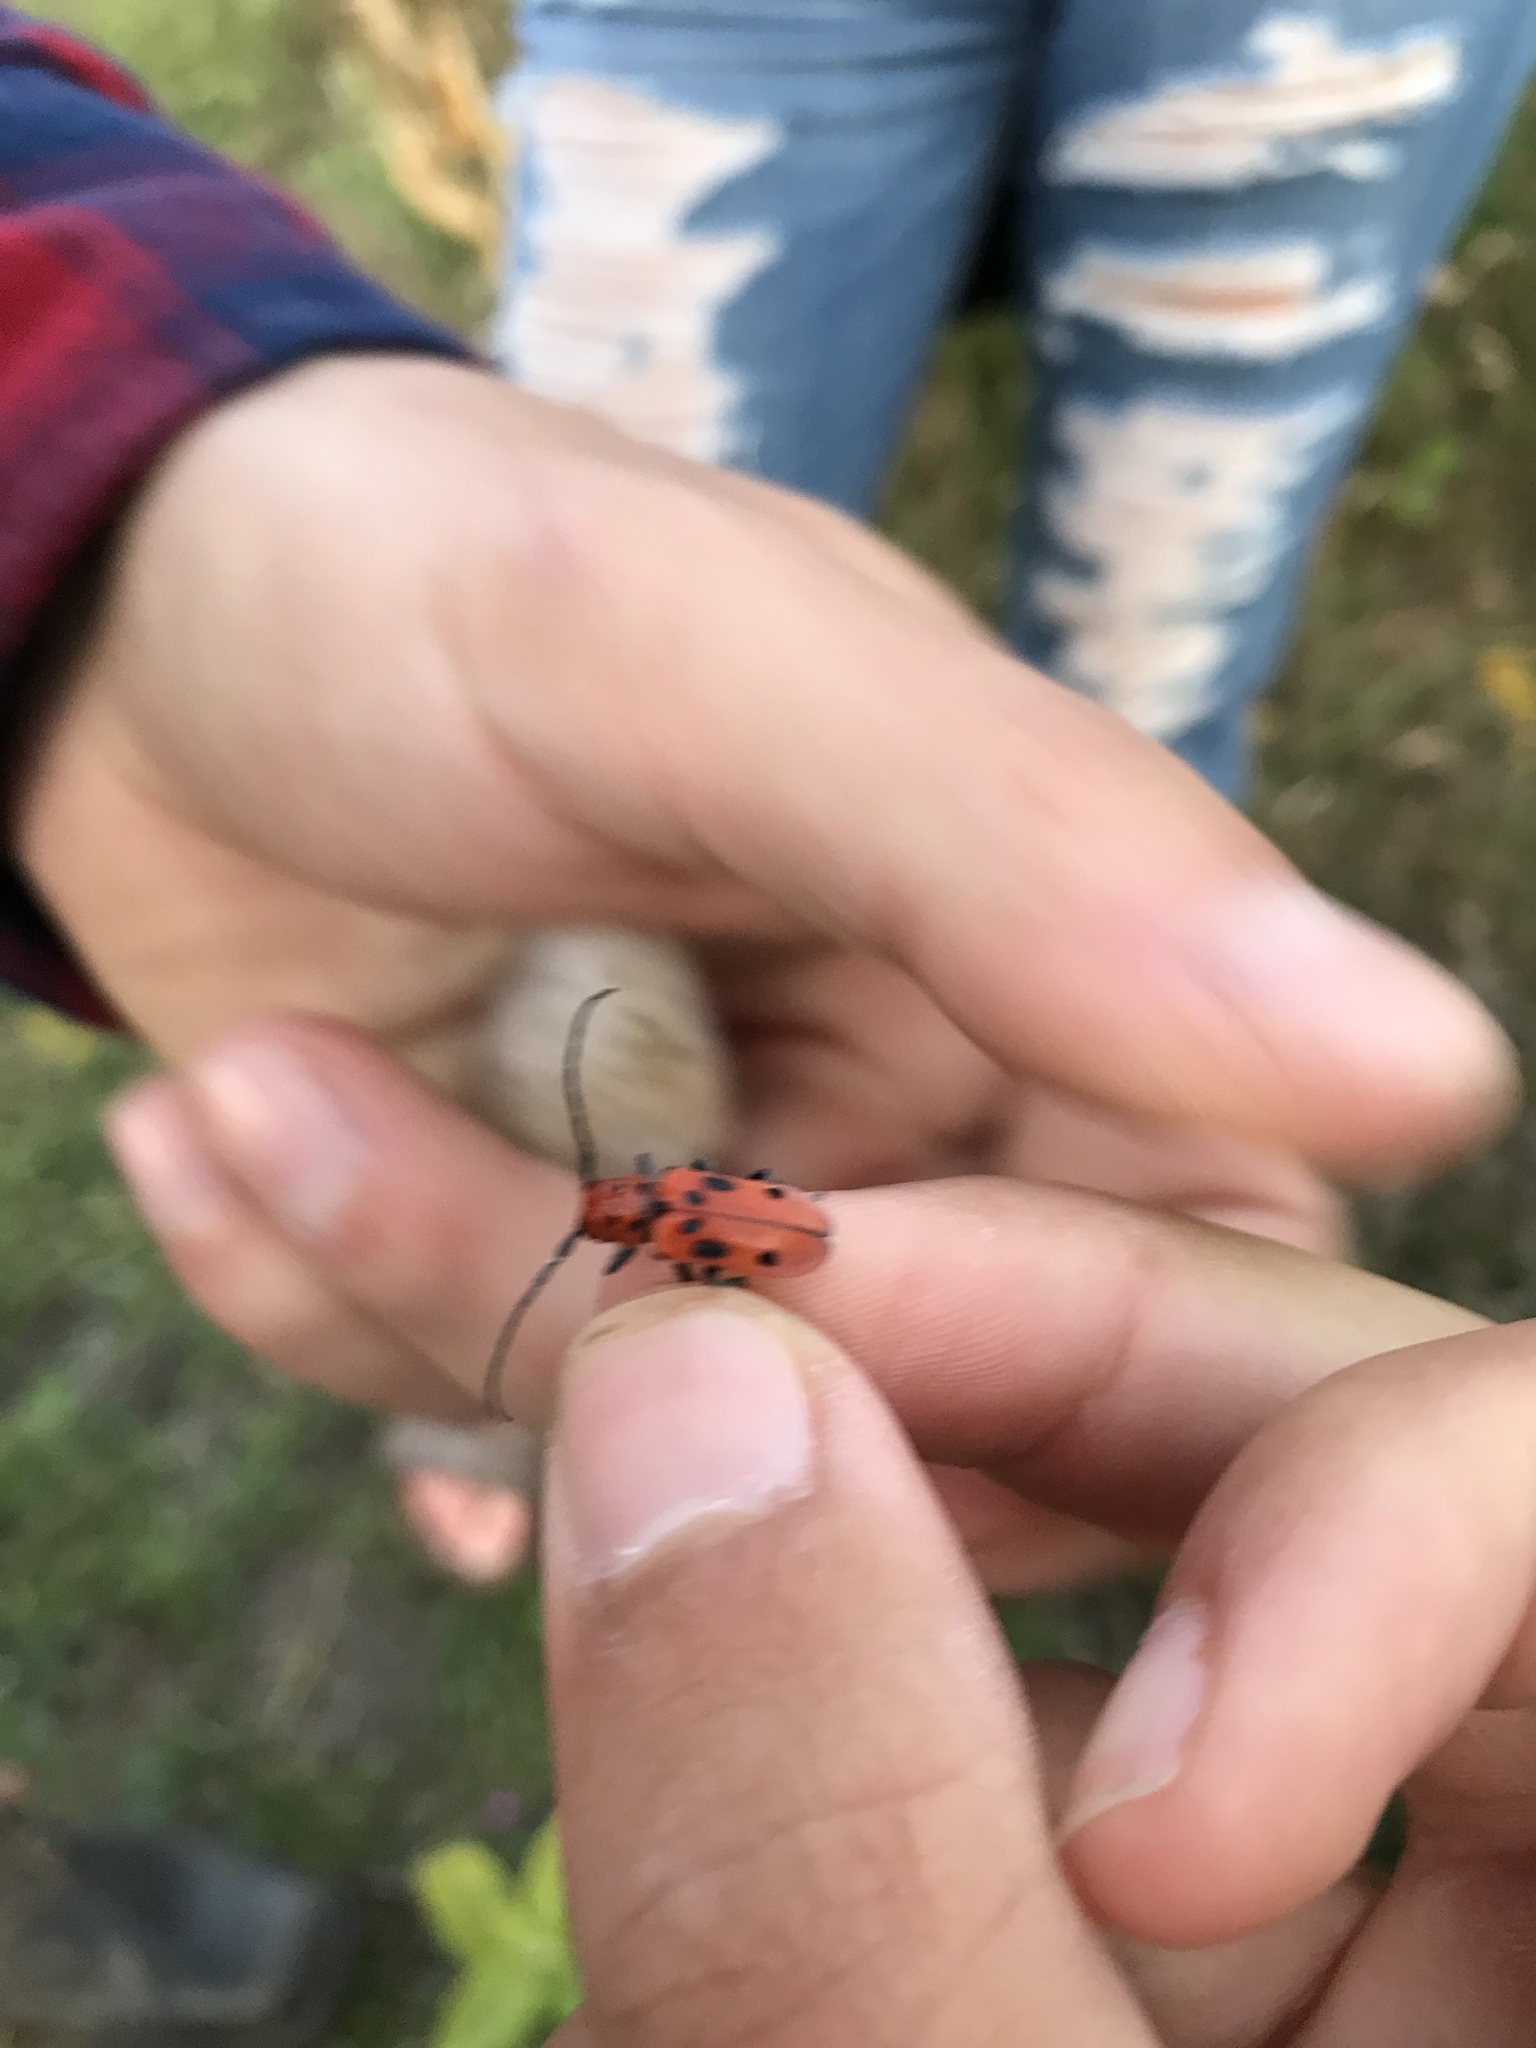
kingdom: Animalia
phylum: Arthropoda
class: Insecta
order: Coleoptera
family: Cerambycidae
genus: Tetraopes
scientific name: Tetraopes tetrophthalmus
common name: Red milkweed beetle
